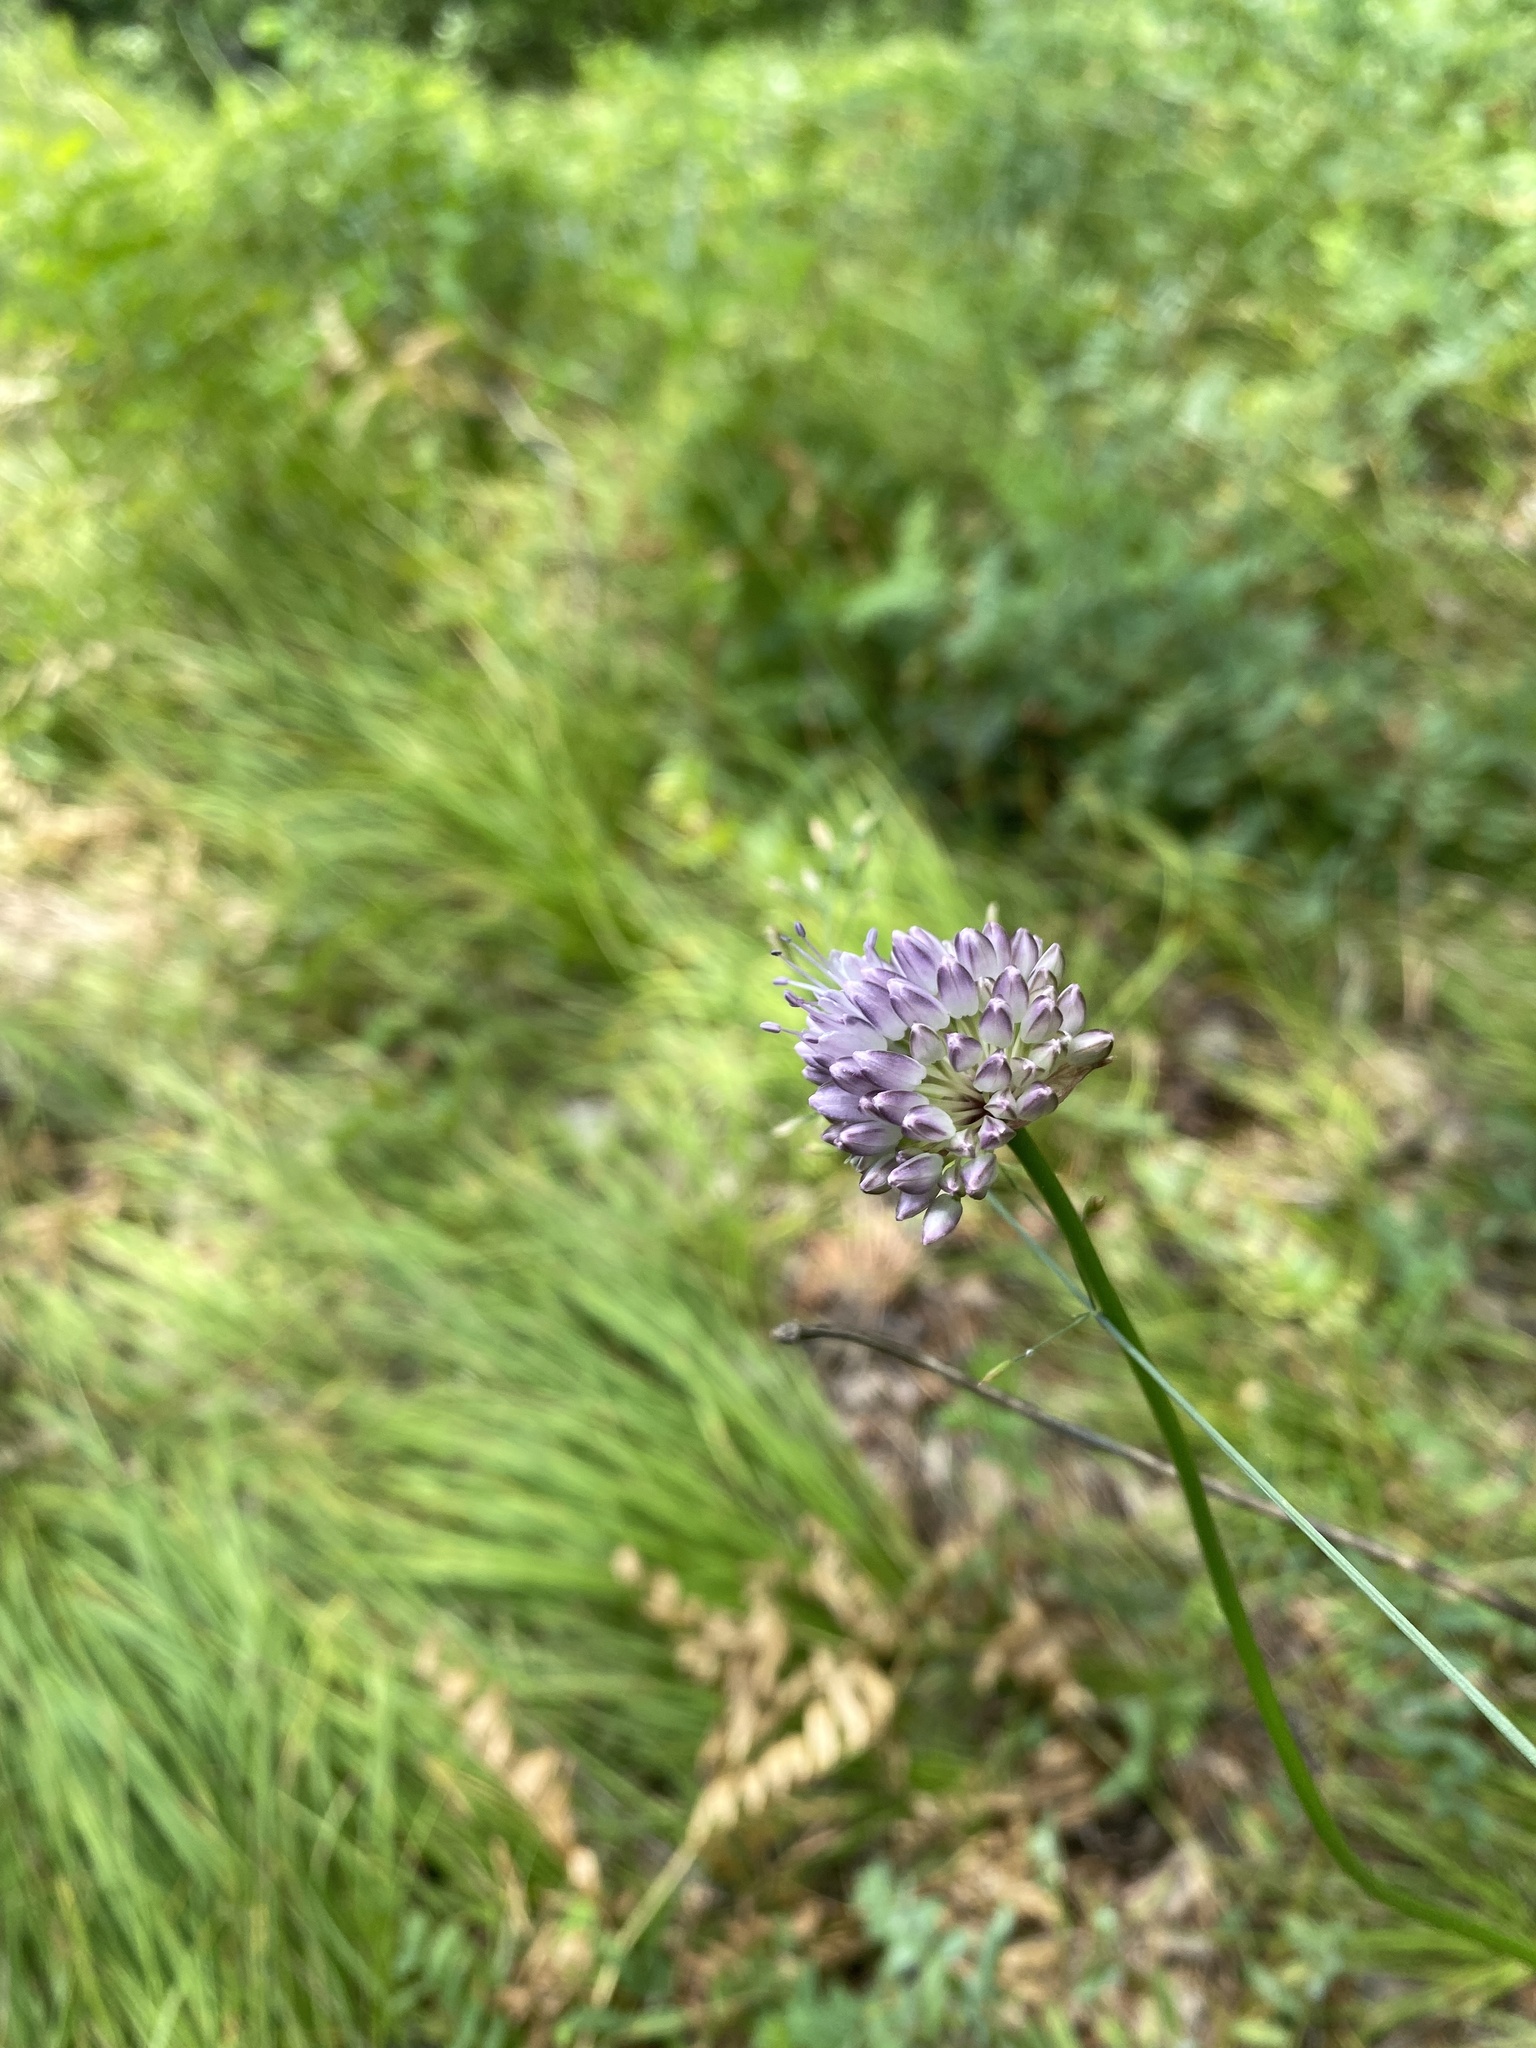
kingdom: Plantae
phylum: Tracheophyta
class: Liliopsida
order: Asparagales
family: Amaryllidaceae
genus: Allium
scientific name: Allium strictum
